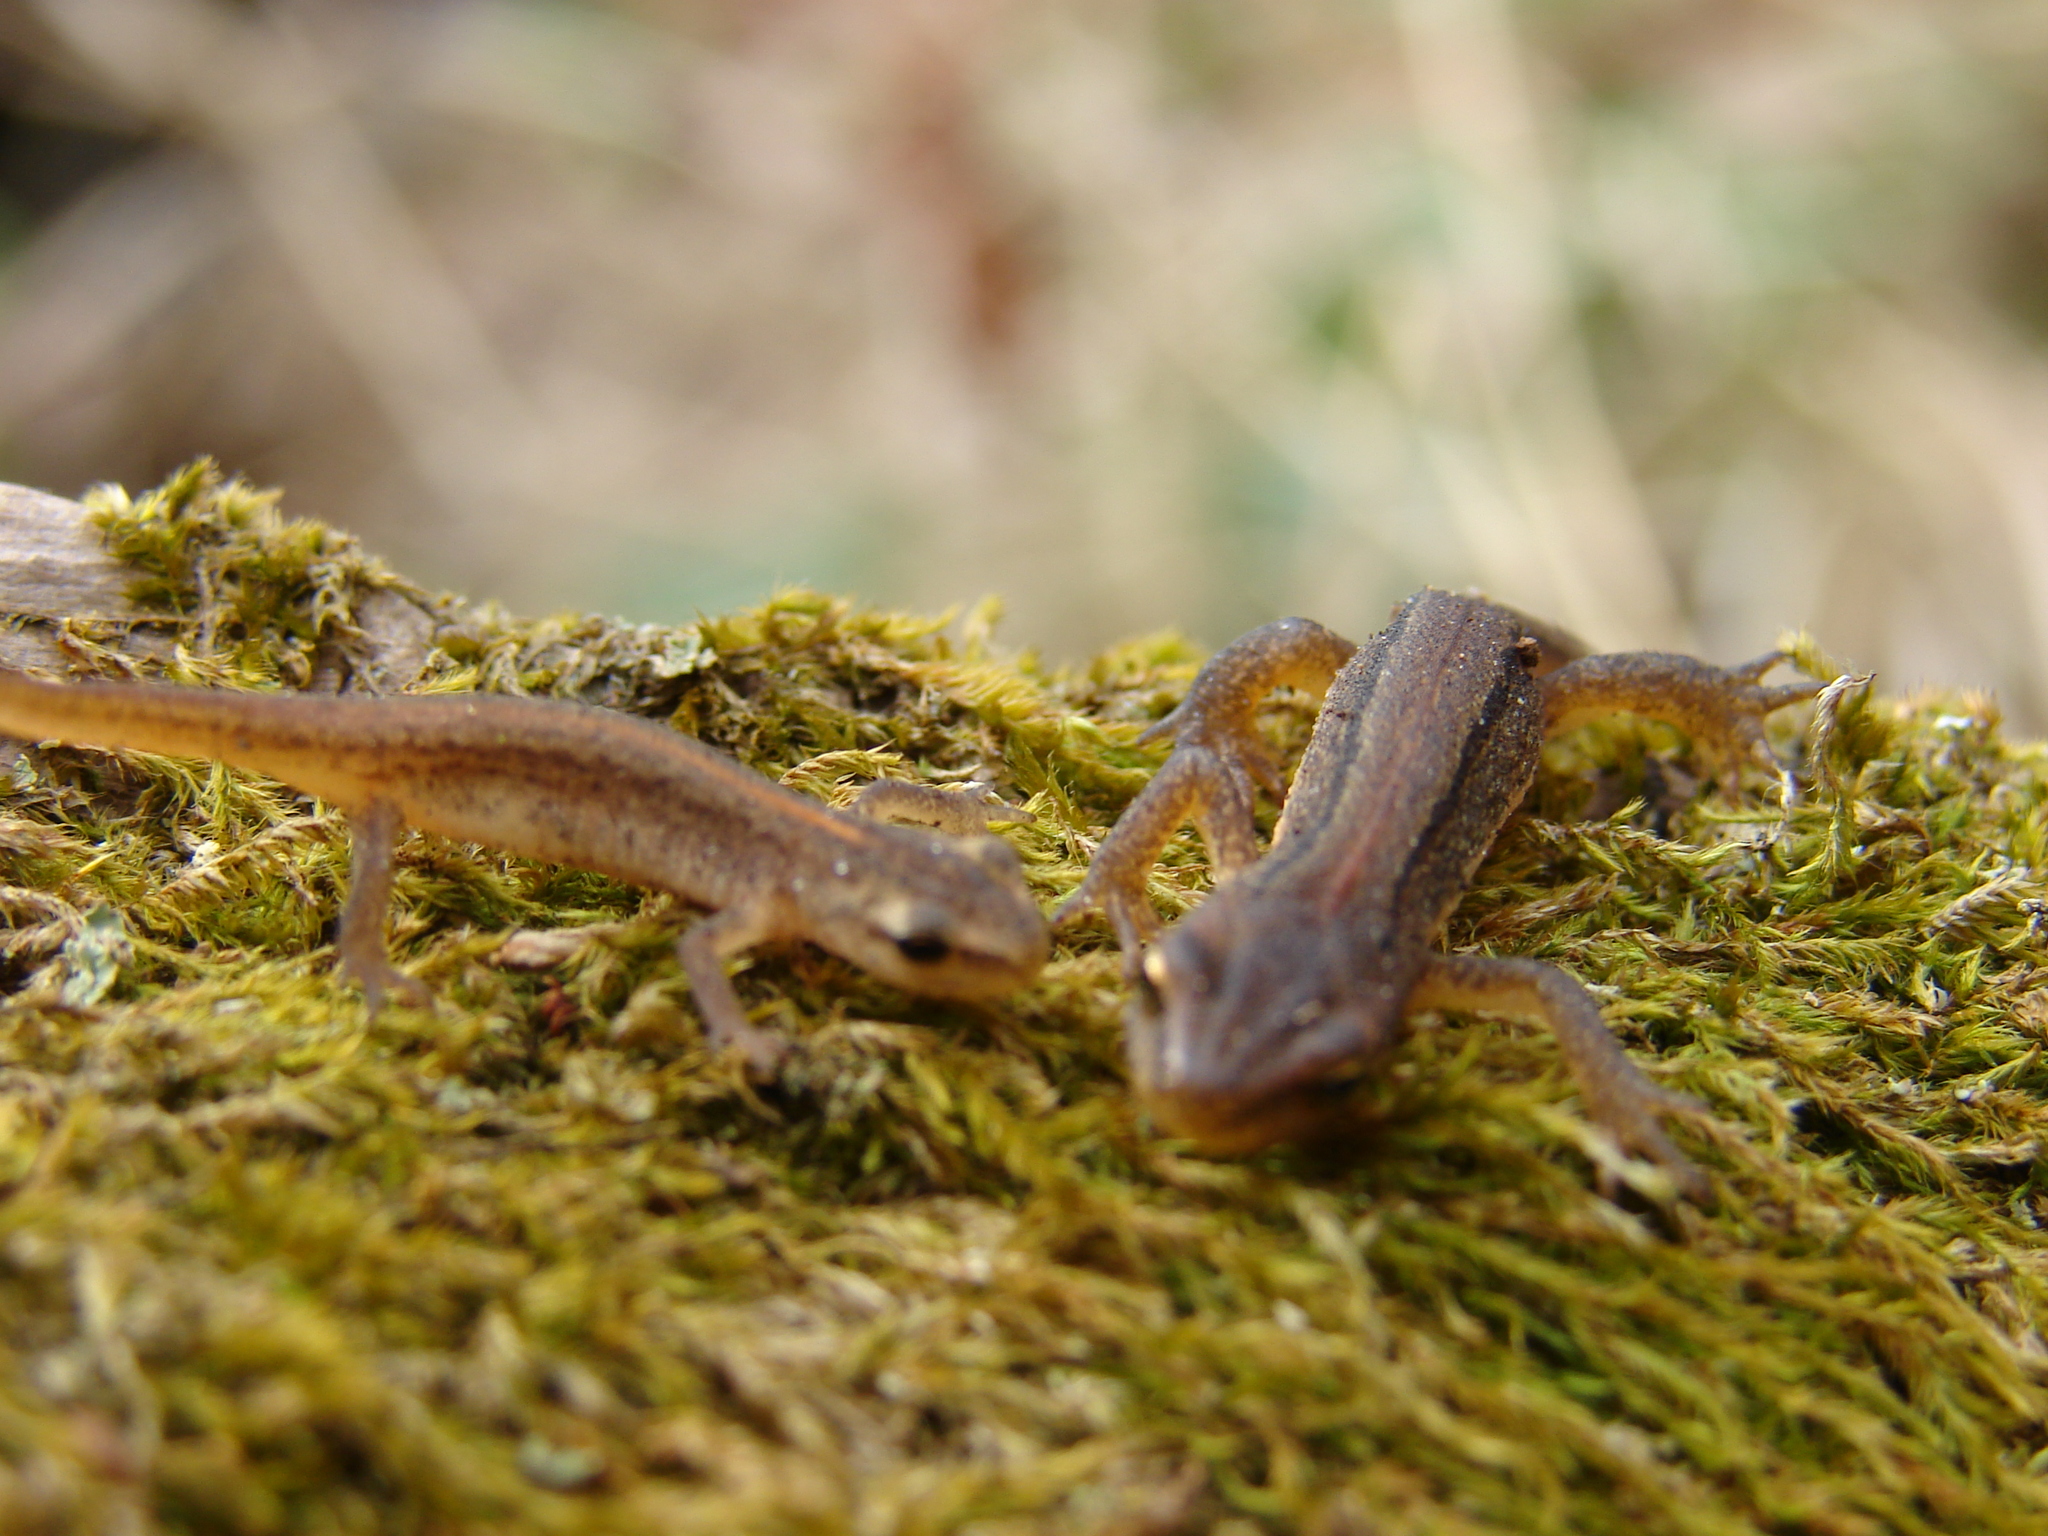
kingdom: Animalia
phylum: Chordata
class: Amphibia
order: Caudata
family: Salamandridae
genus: Lissotriton
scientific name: Lissotriton vulgaris
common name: Smooth newt
